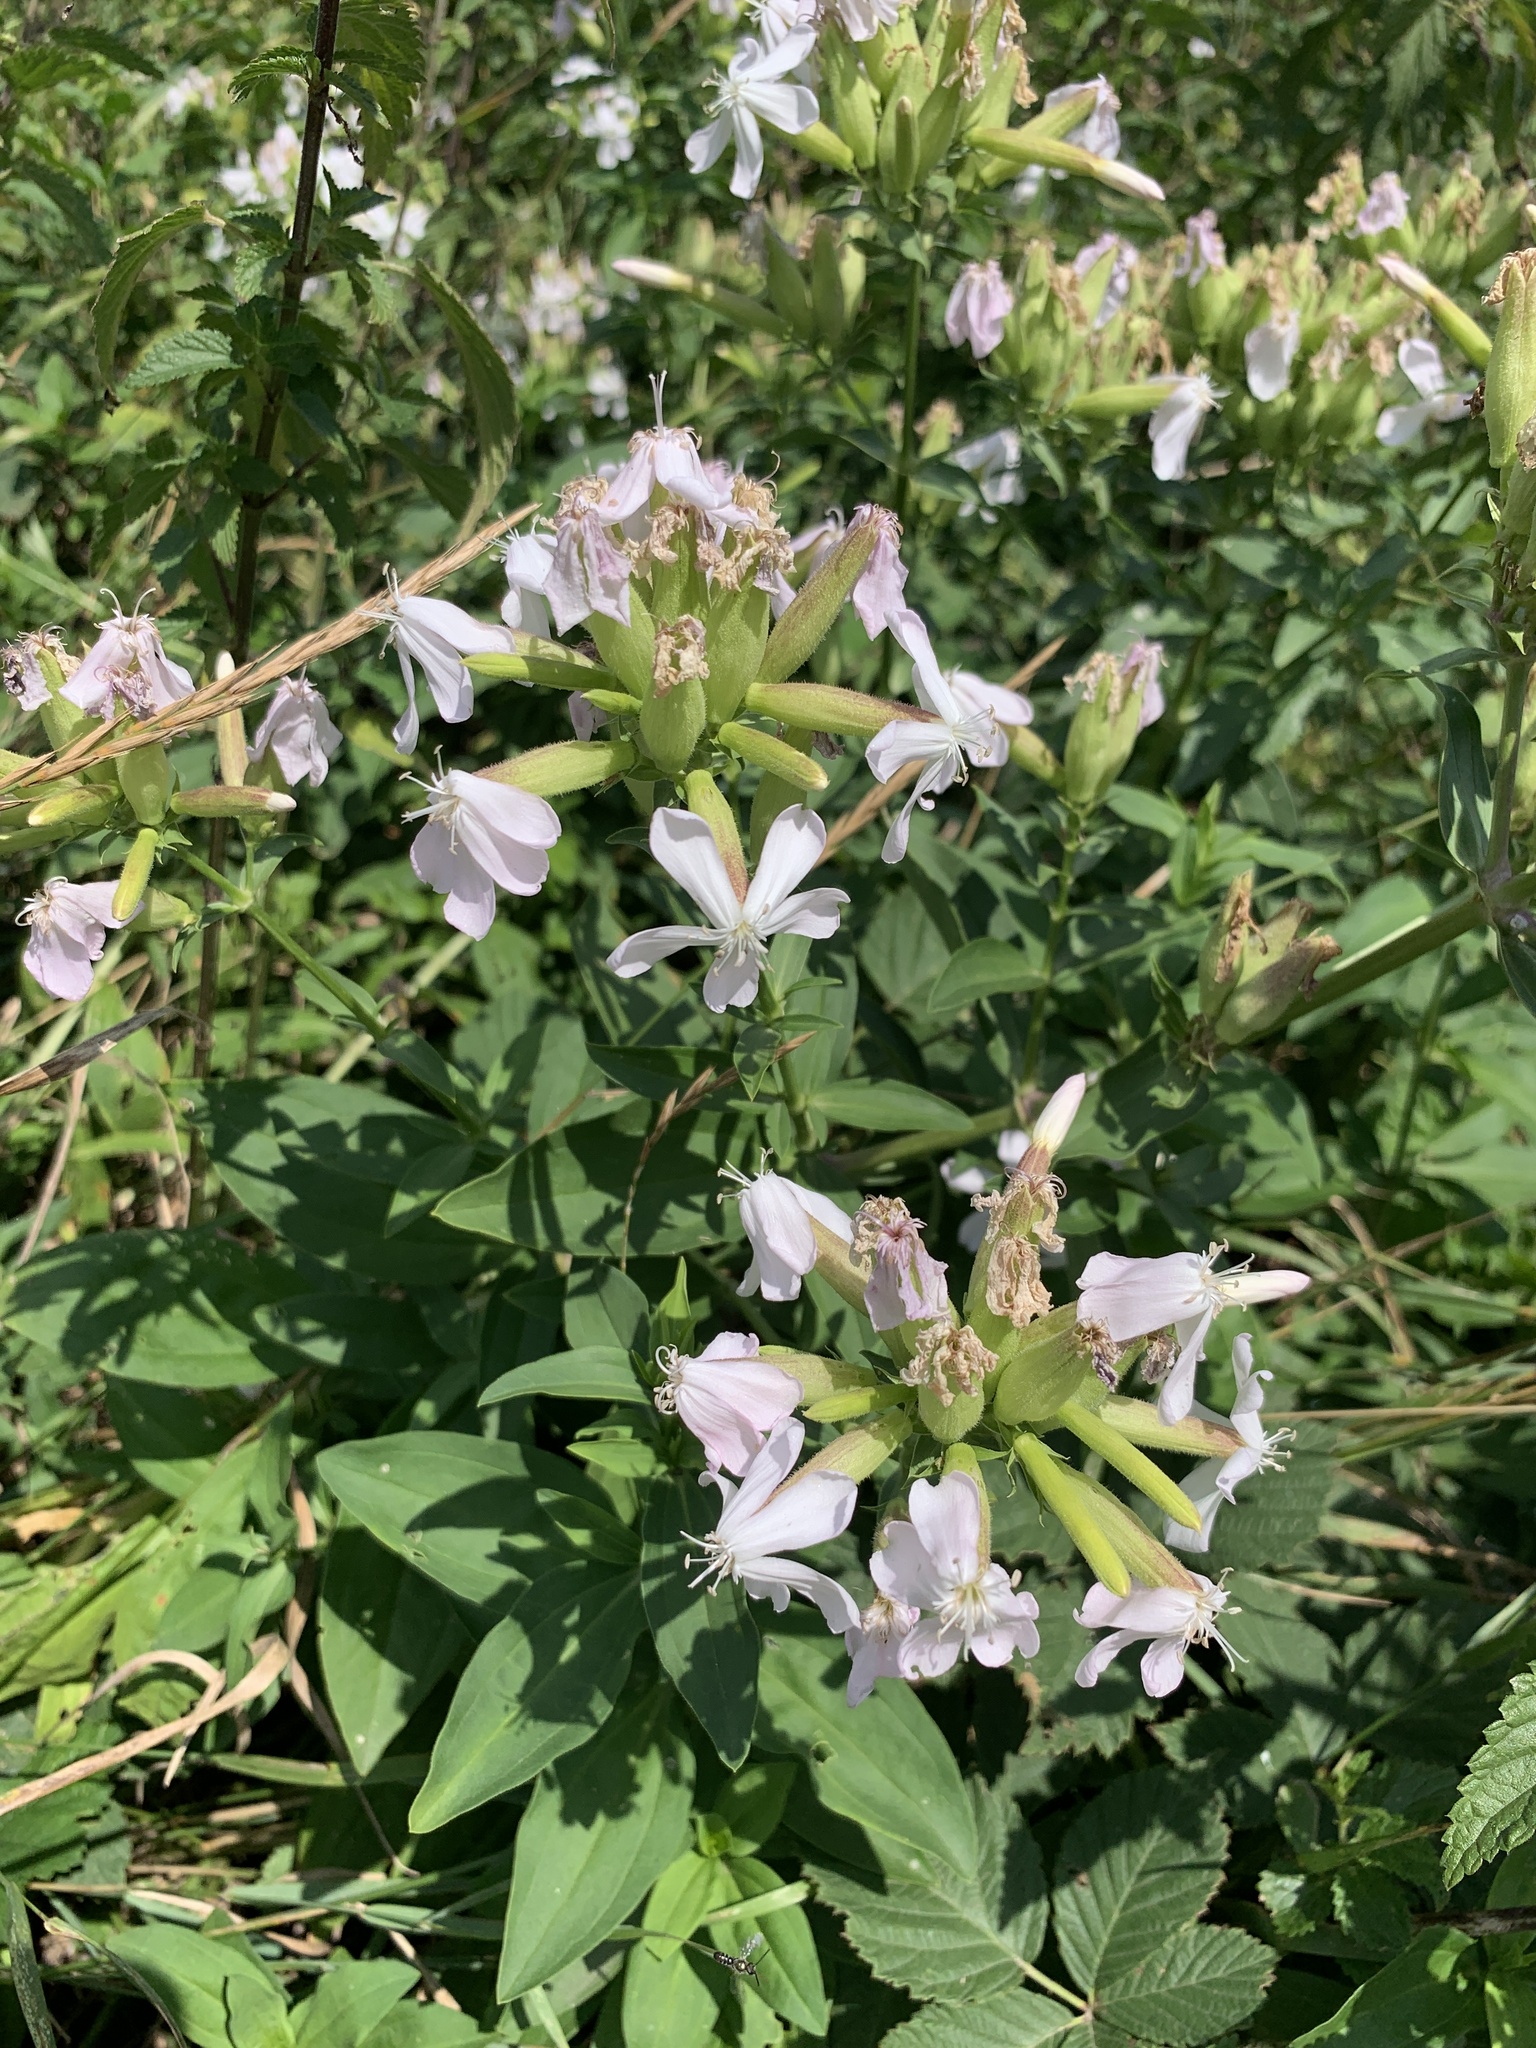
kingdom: Plantae
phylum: Tracheophyta
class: Magnoliopsida
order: Caryophyllales
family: Caryophyllaceae
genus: Saponaria
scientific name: Saponaria officinalis
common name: Soapwort
